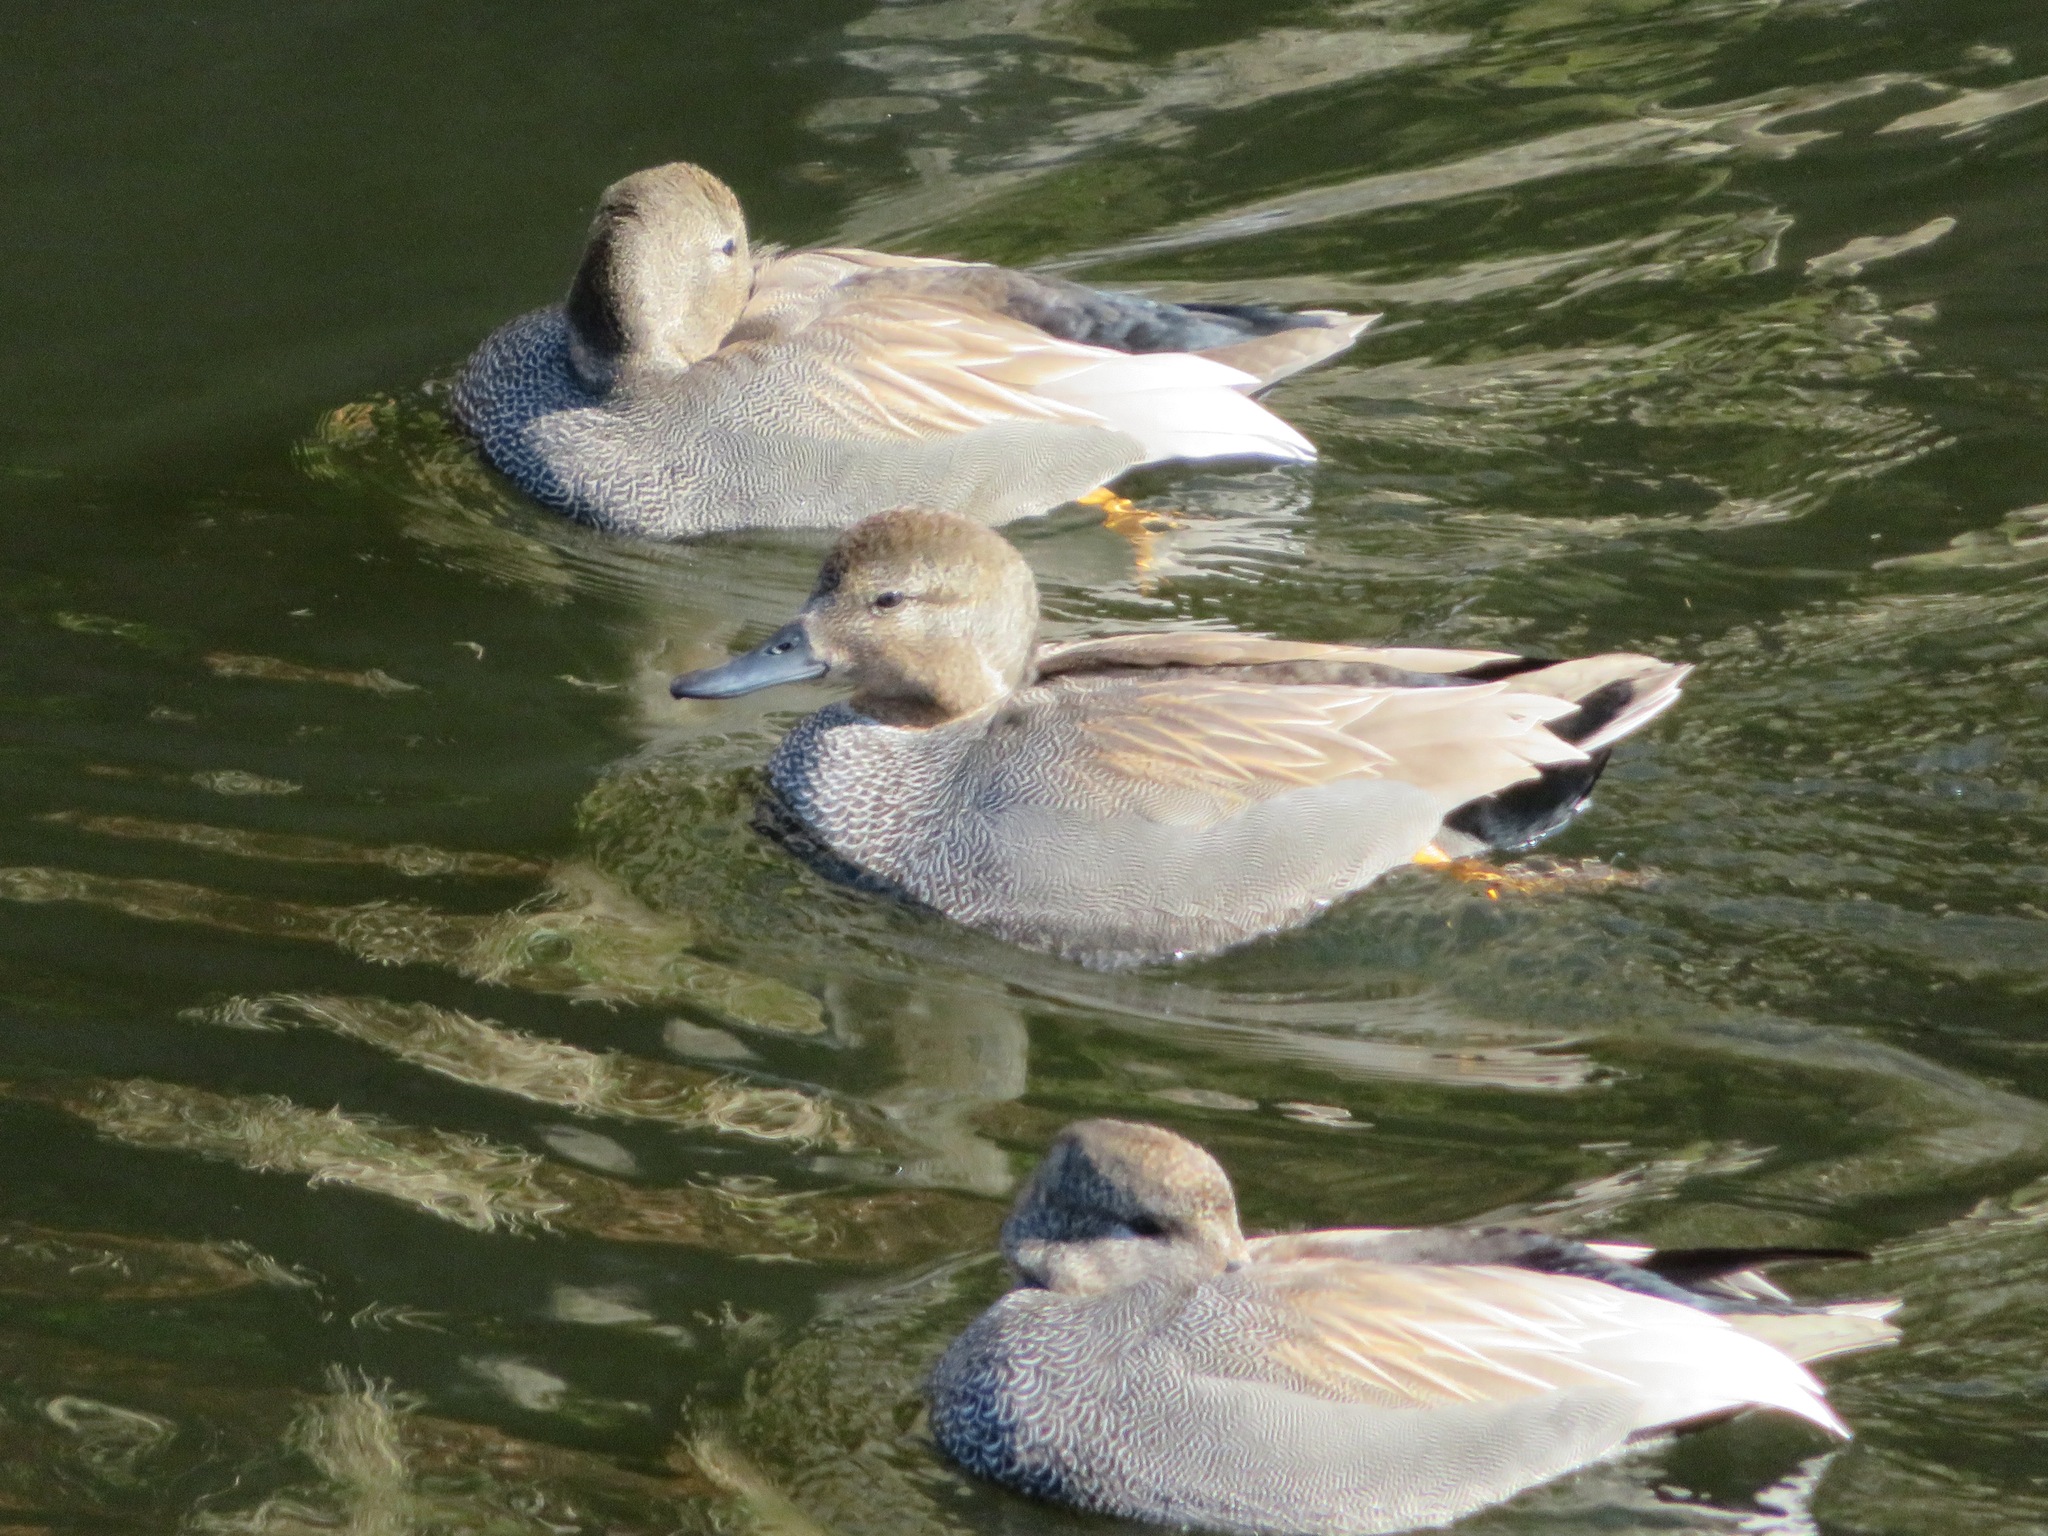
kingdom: Animalia
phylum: Chordata
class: Aves
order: Anseriformes
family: Anatidae
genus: Mareca
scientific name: Mareca strepera
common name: Gadwall
